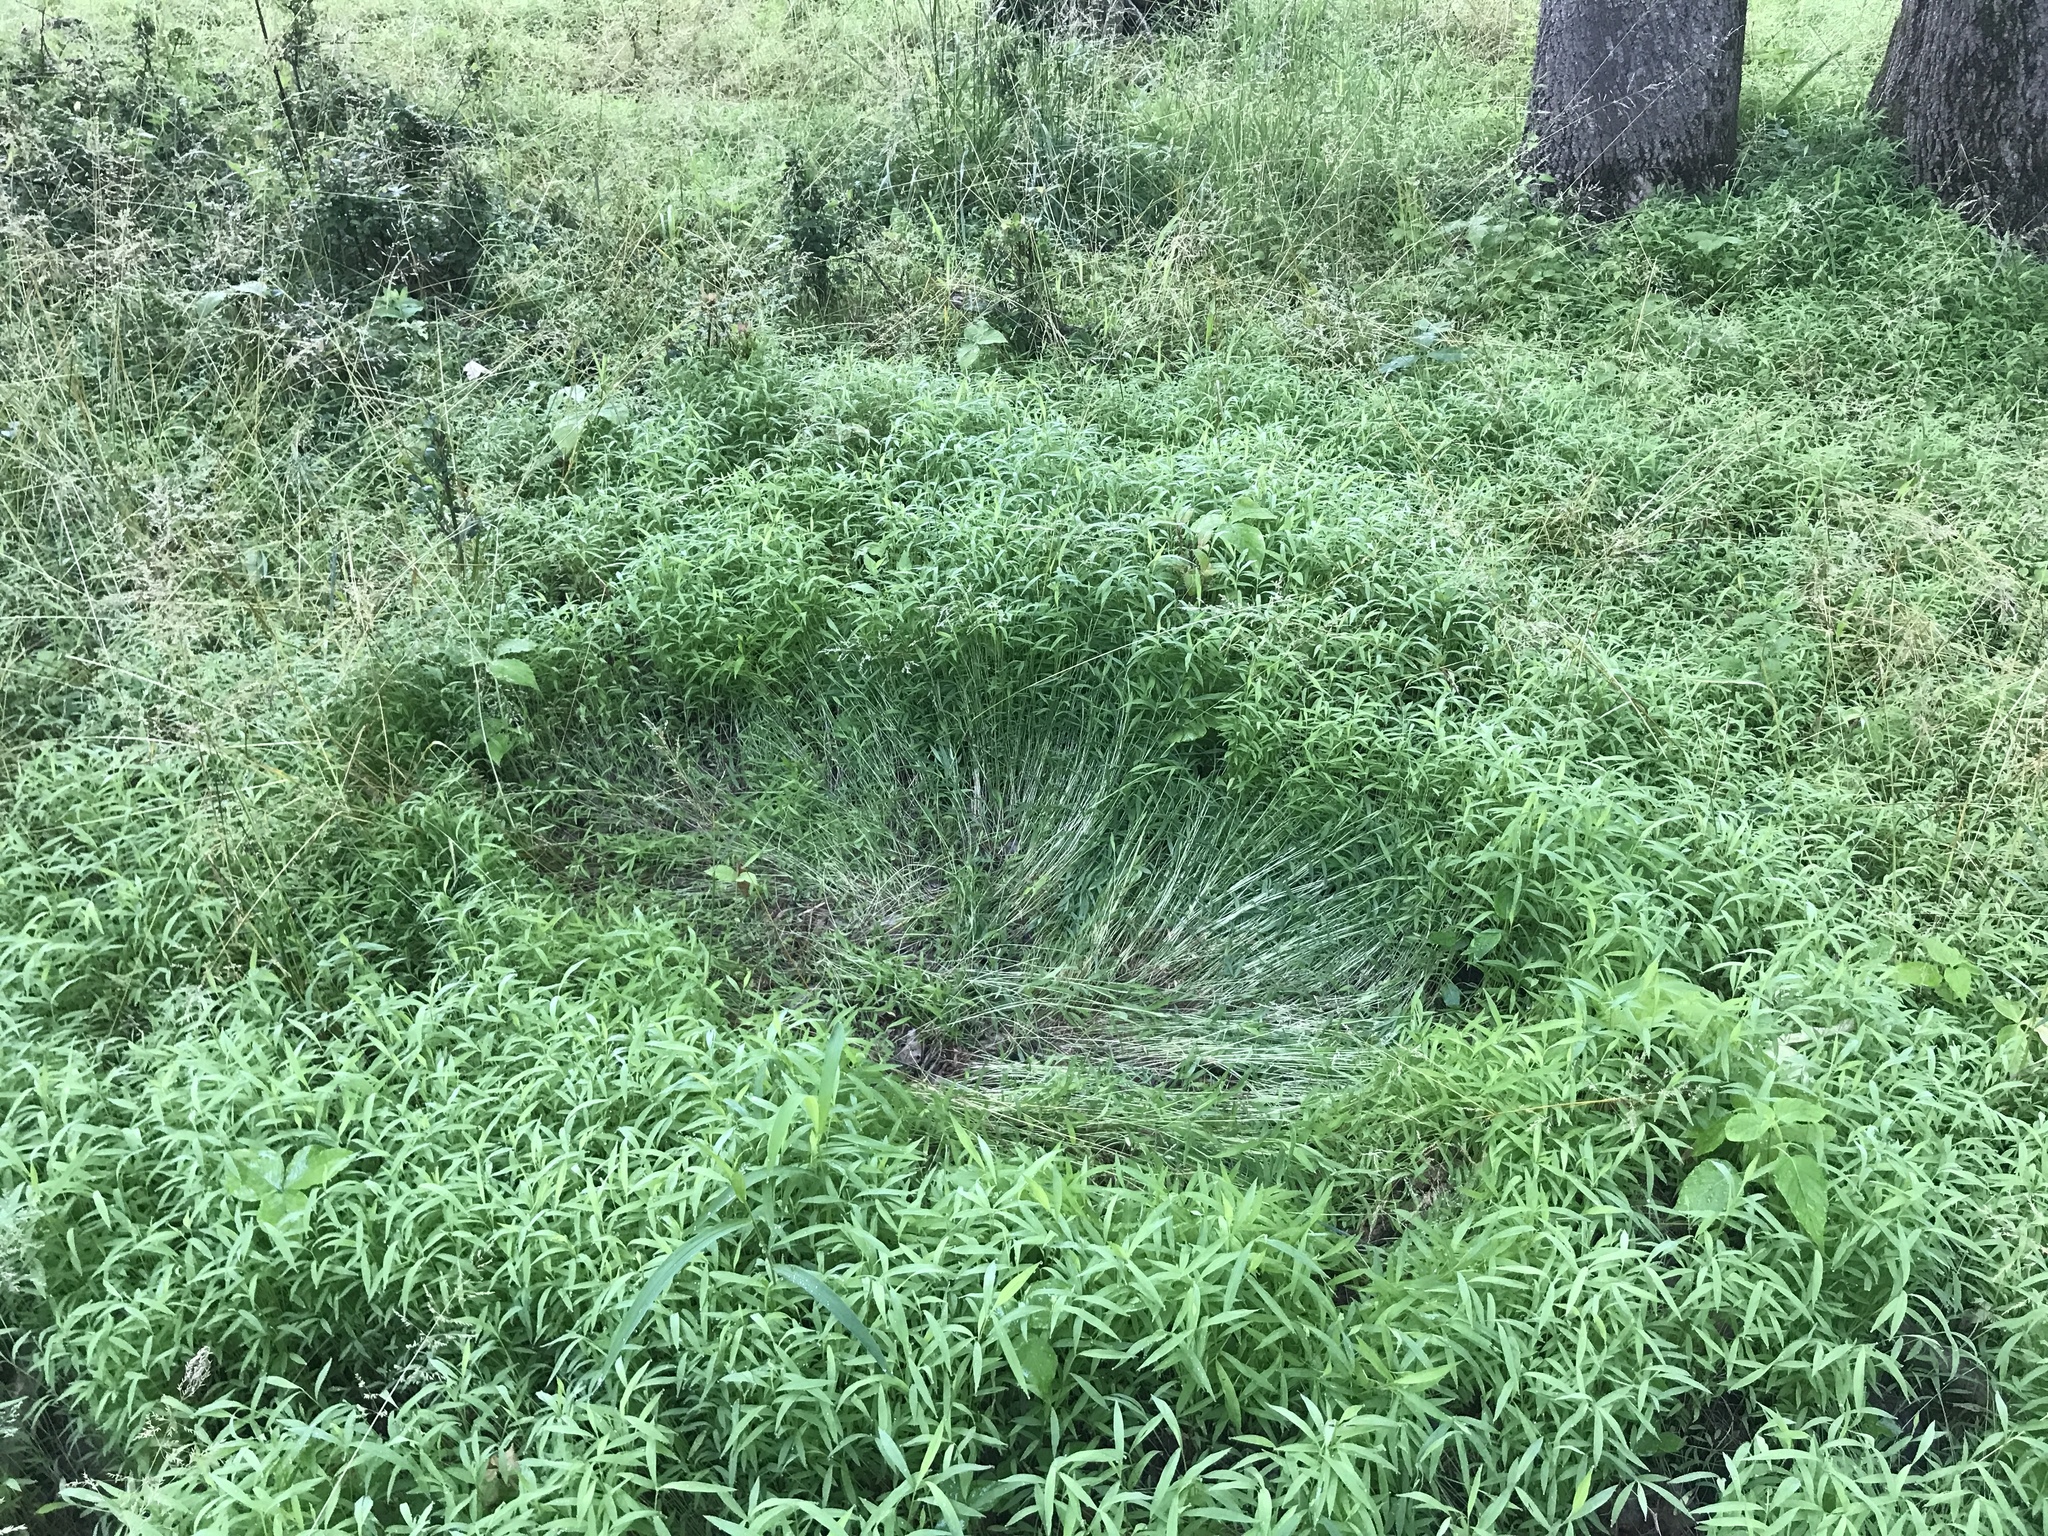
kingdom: Animalia
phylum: Chordata
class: Mammalia
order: Artiodactyla
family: Cervidae
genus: Odocoileus
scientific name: Odocoileus virginianus
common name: White-tailed deer
